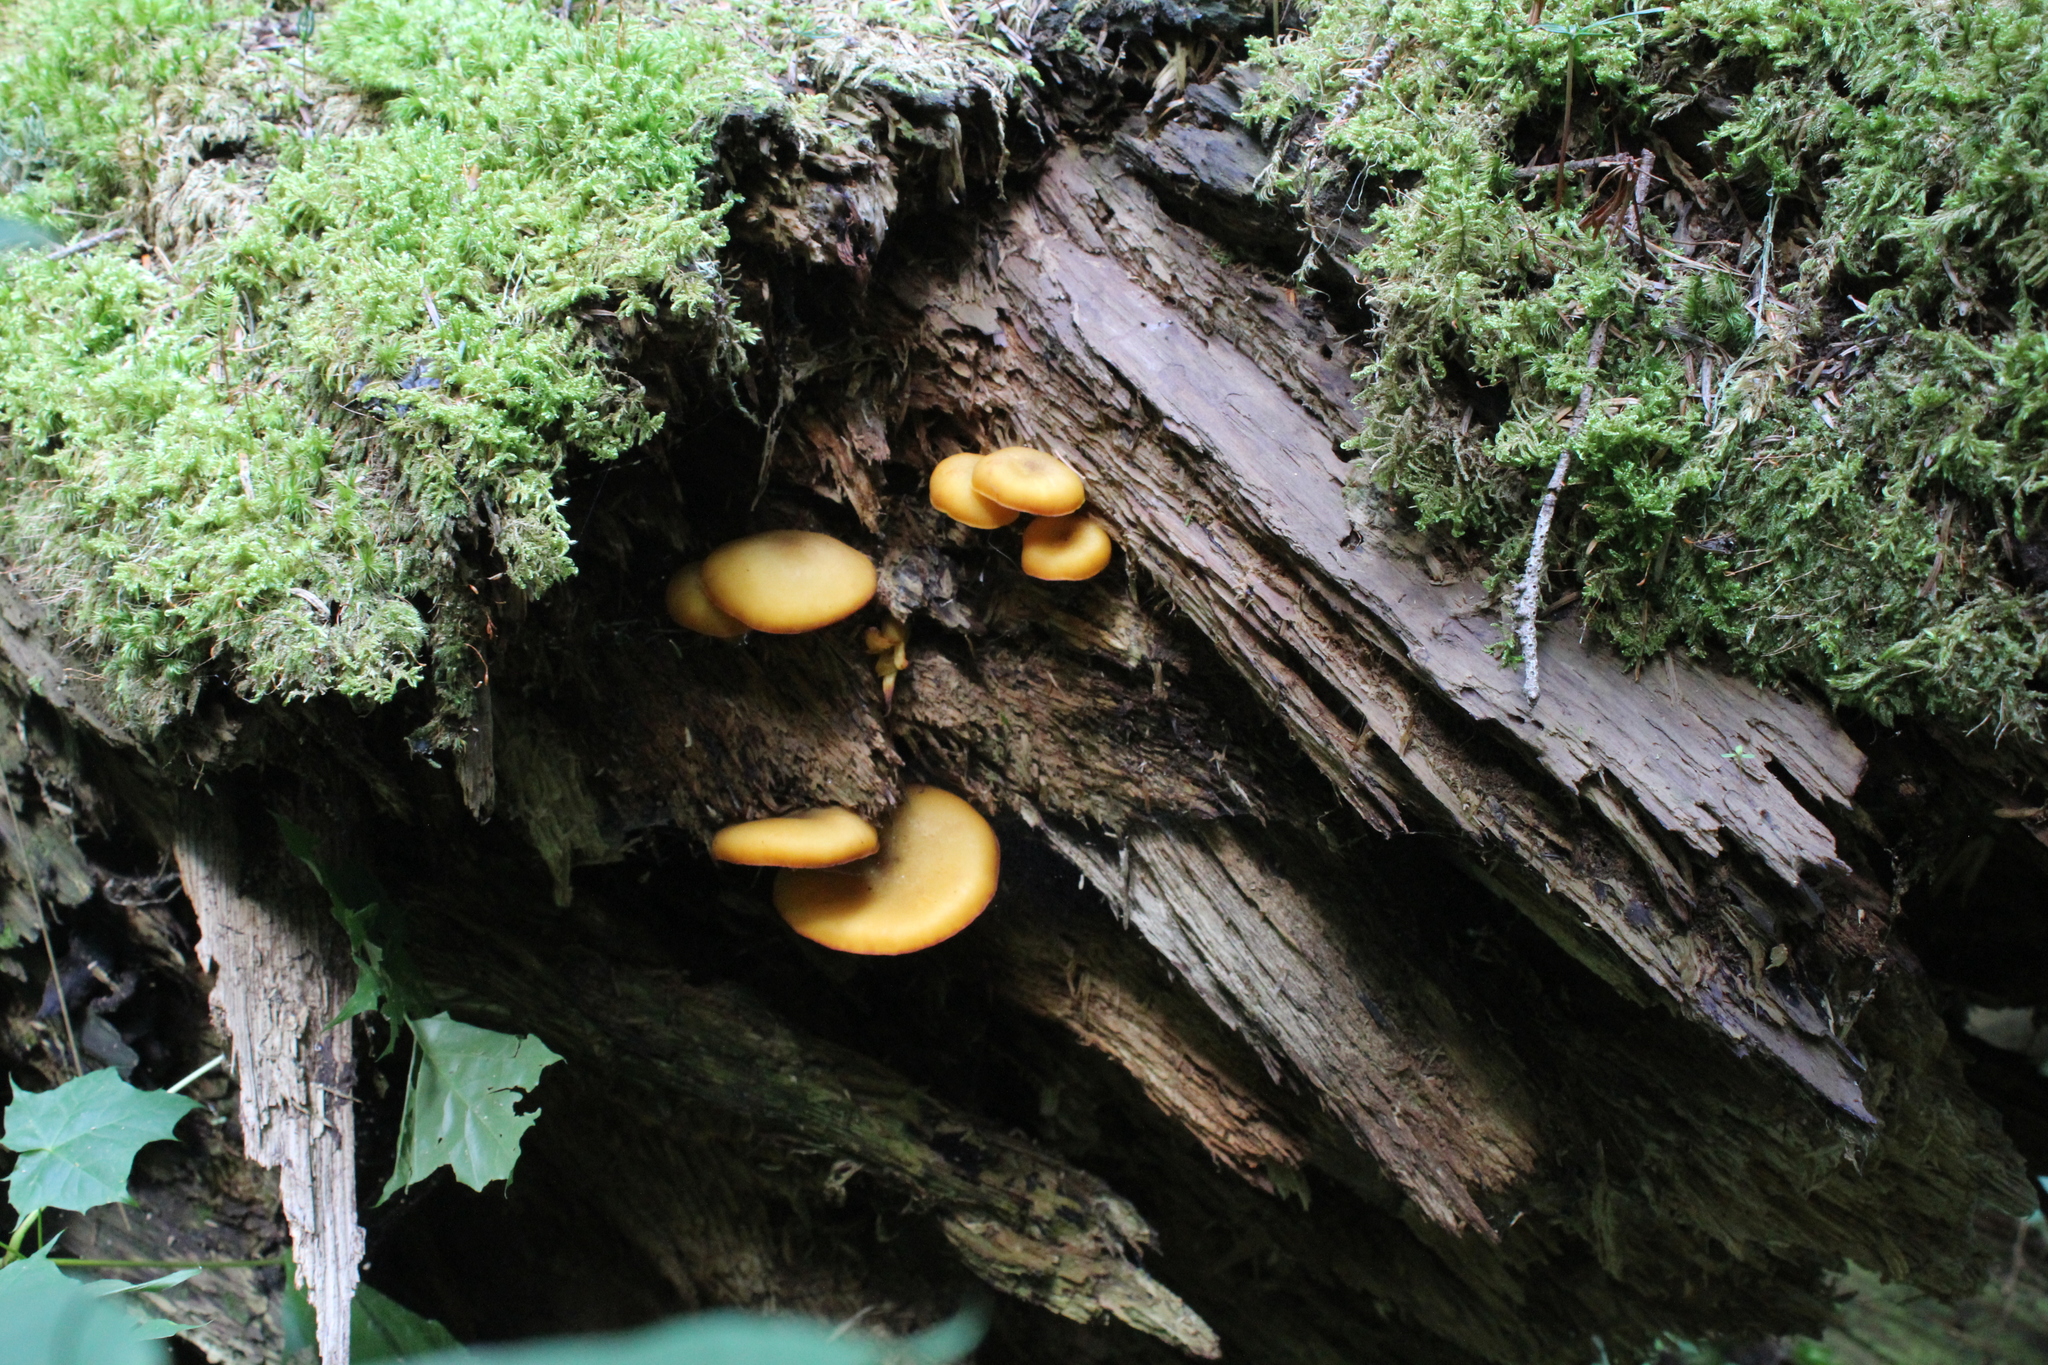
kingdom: Fungi
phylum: Basidiomycota
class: Agaricomycetes
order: Agaricales
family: Tricholomataceae
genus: Tricholomopsis
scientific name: Tricholomopsis decora
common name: Prunes and custard
